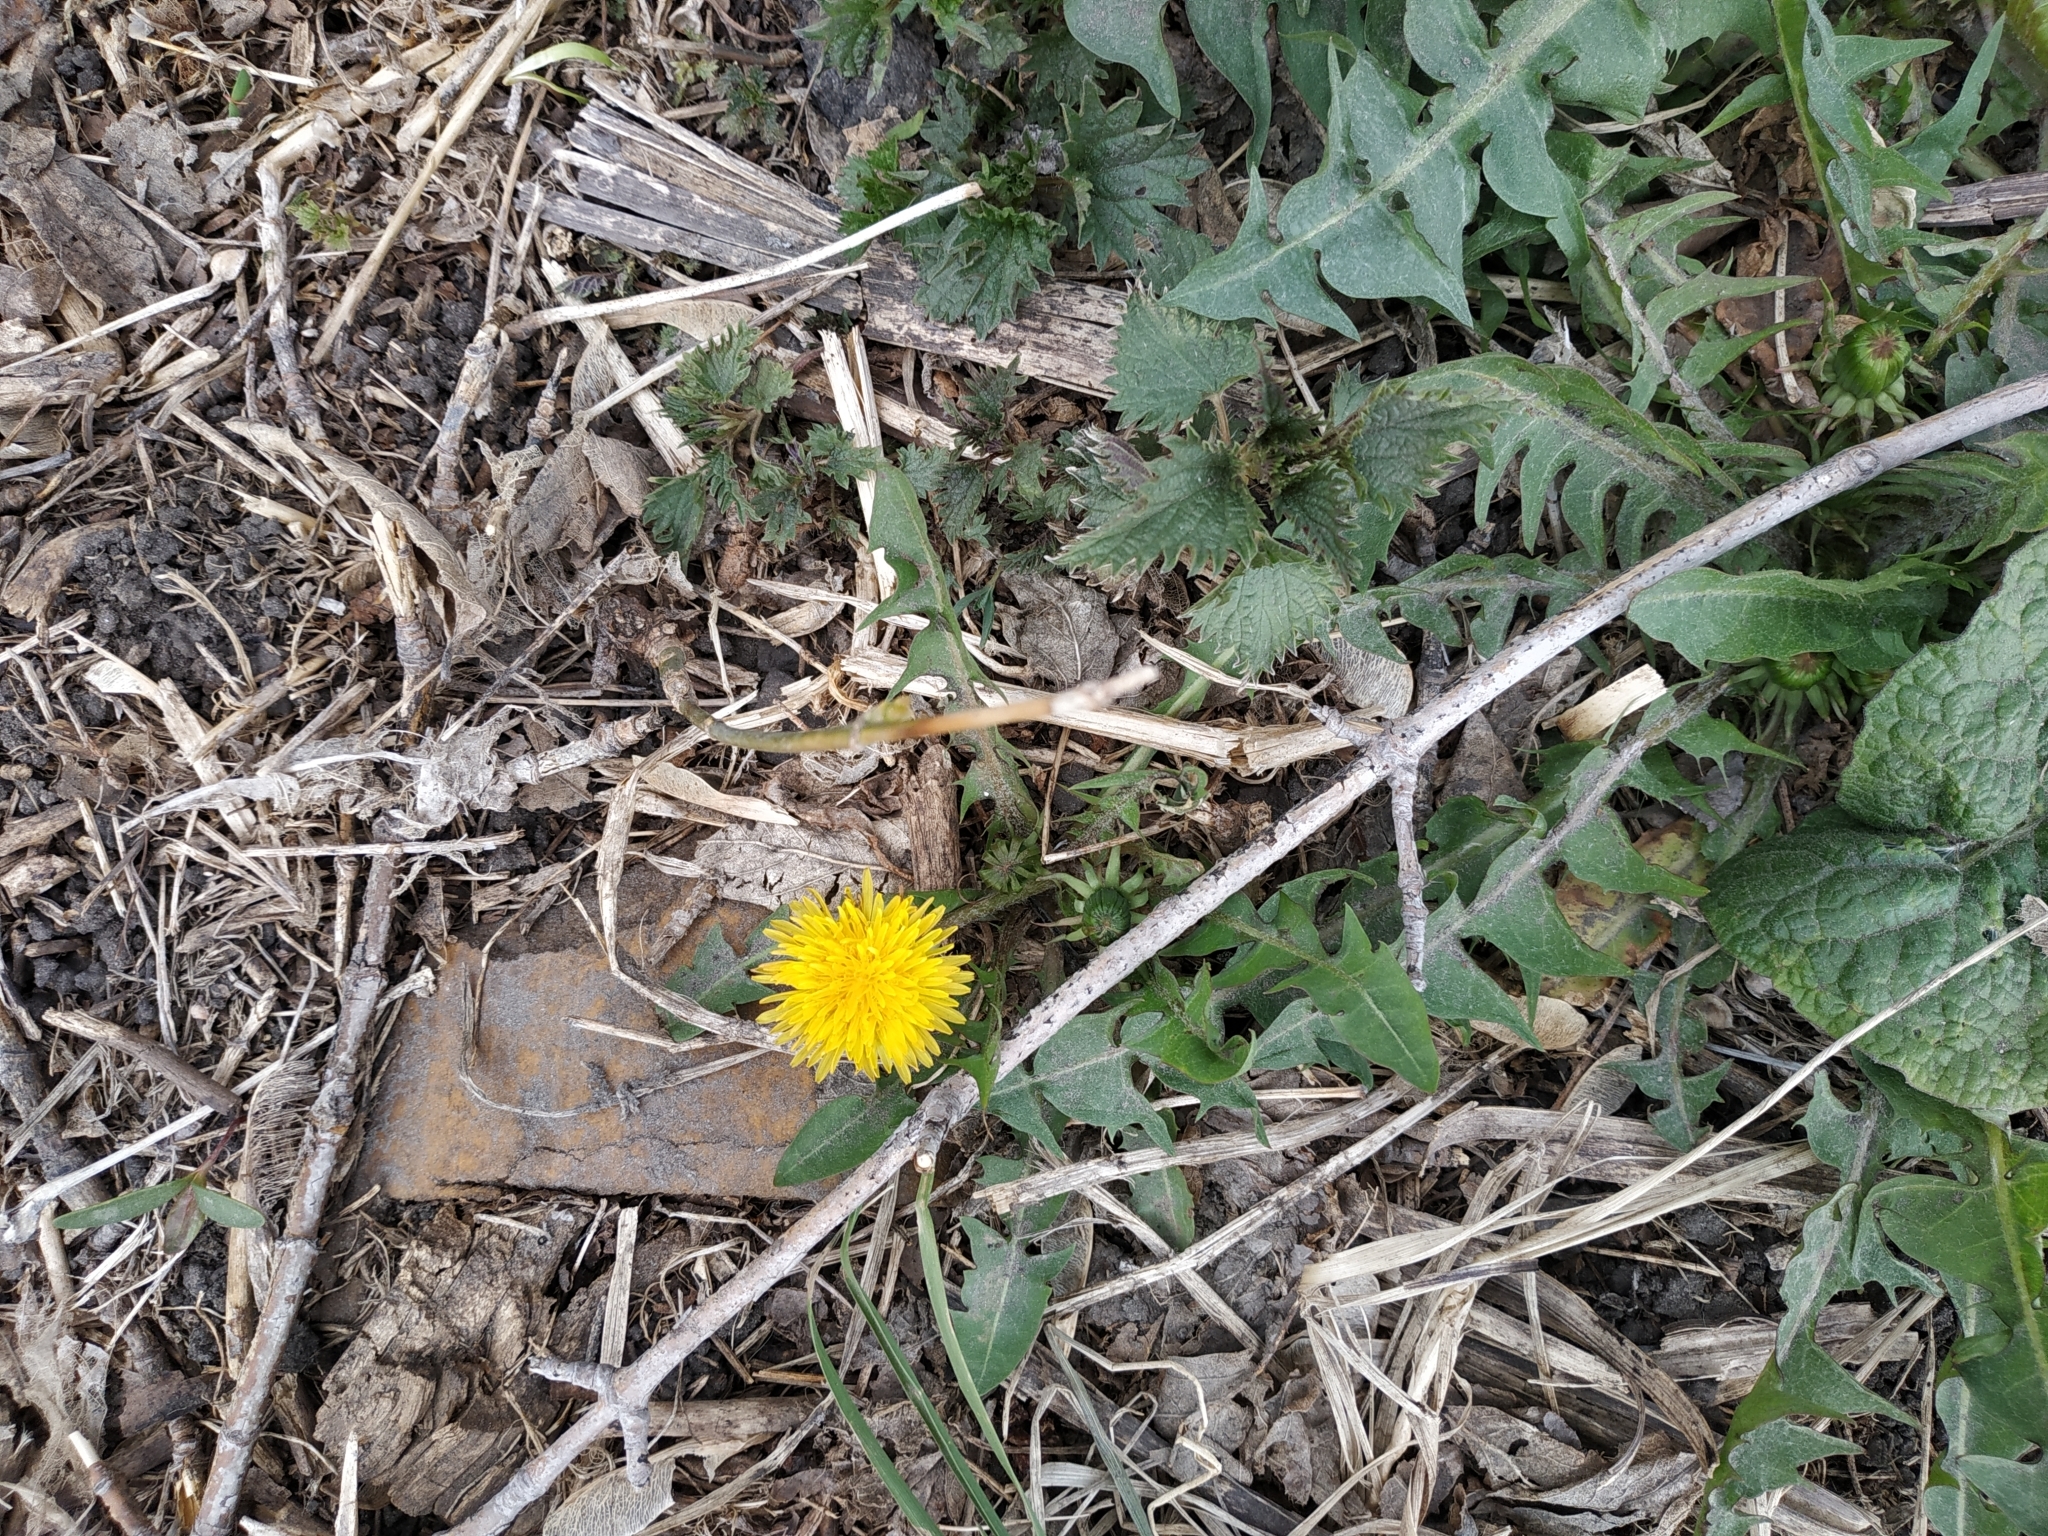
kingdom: Plantae
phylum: Tracheophyta
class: Magnoliopsida
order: Asterales
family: Asteraceae
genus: Taraxacum
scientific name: Taraxacum officinale
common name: Common dandelion
